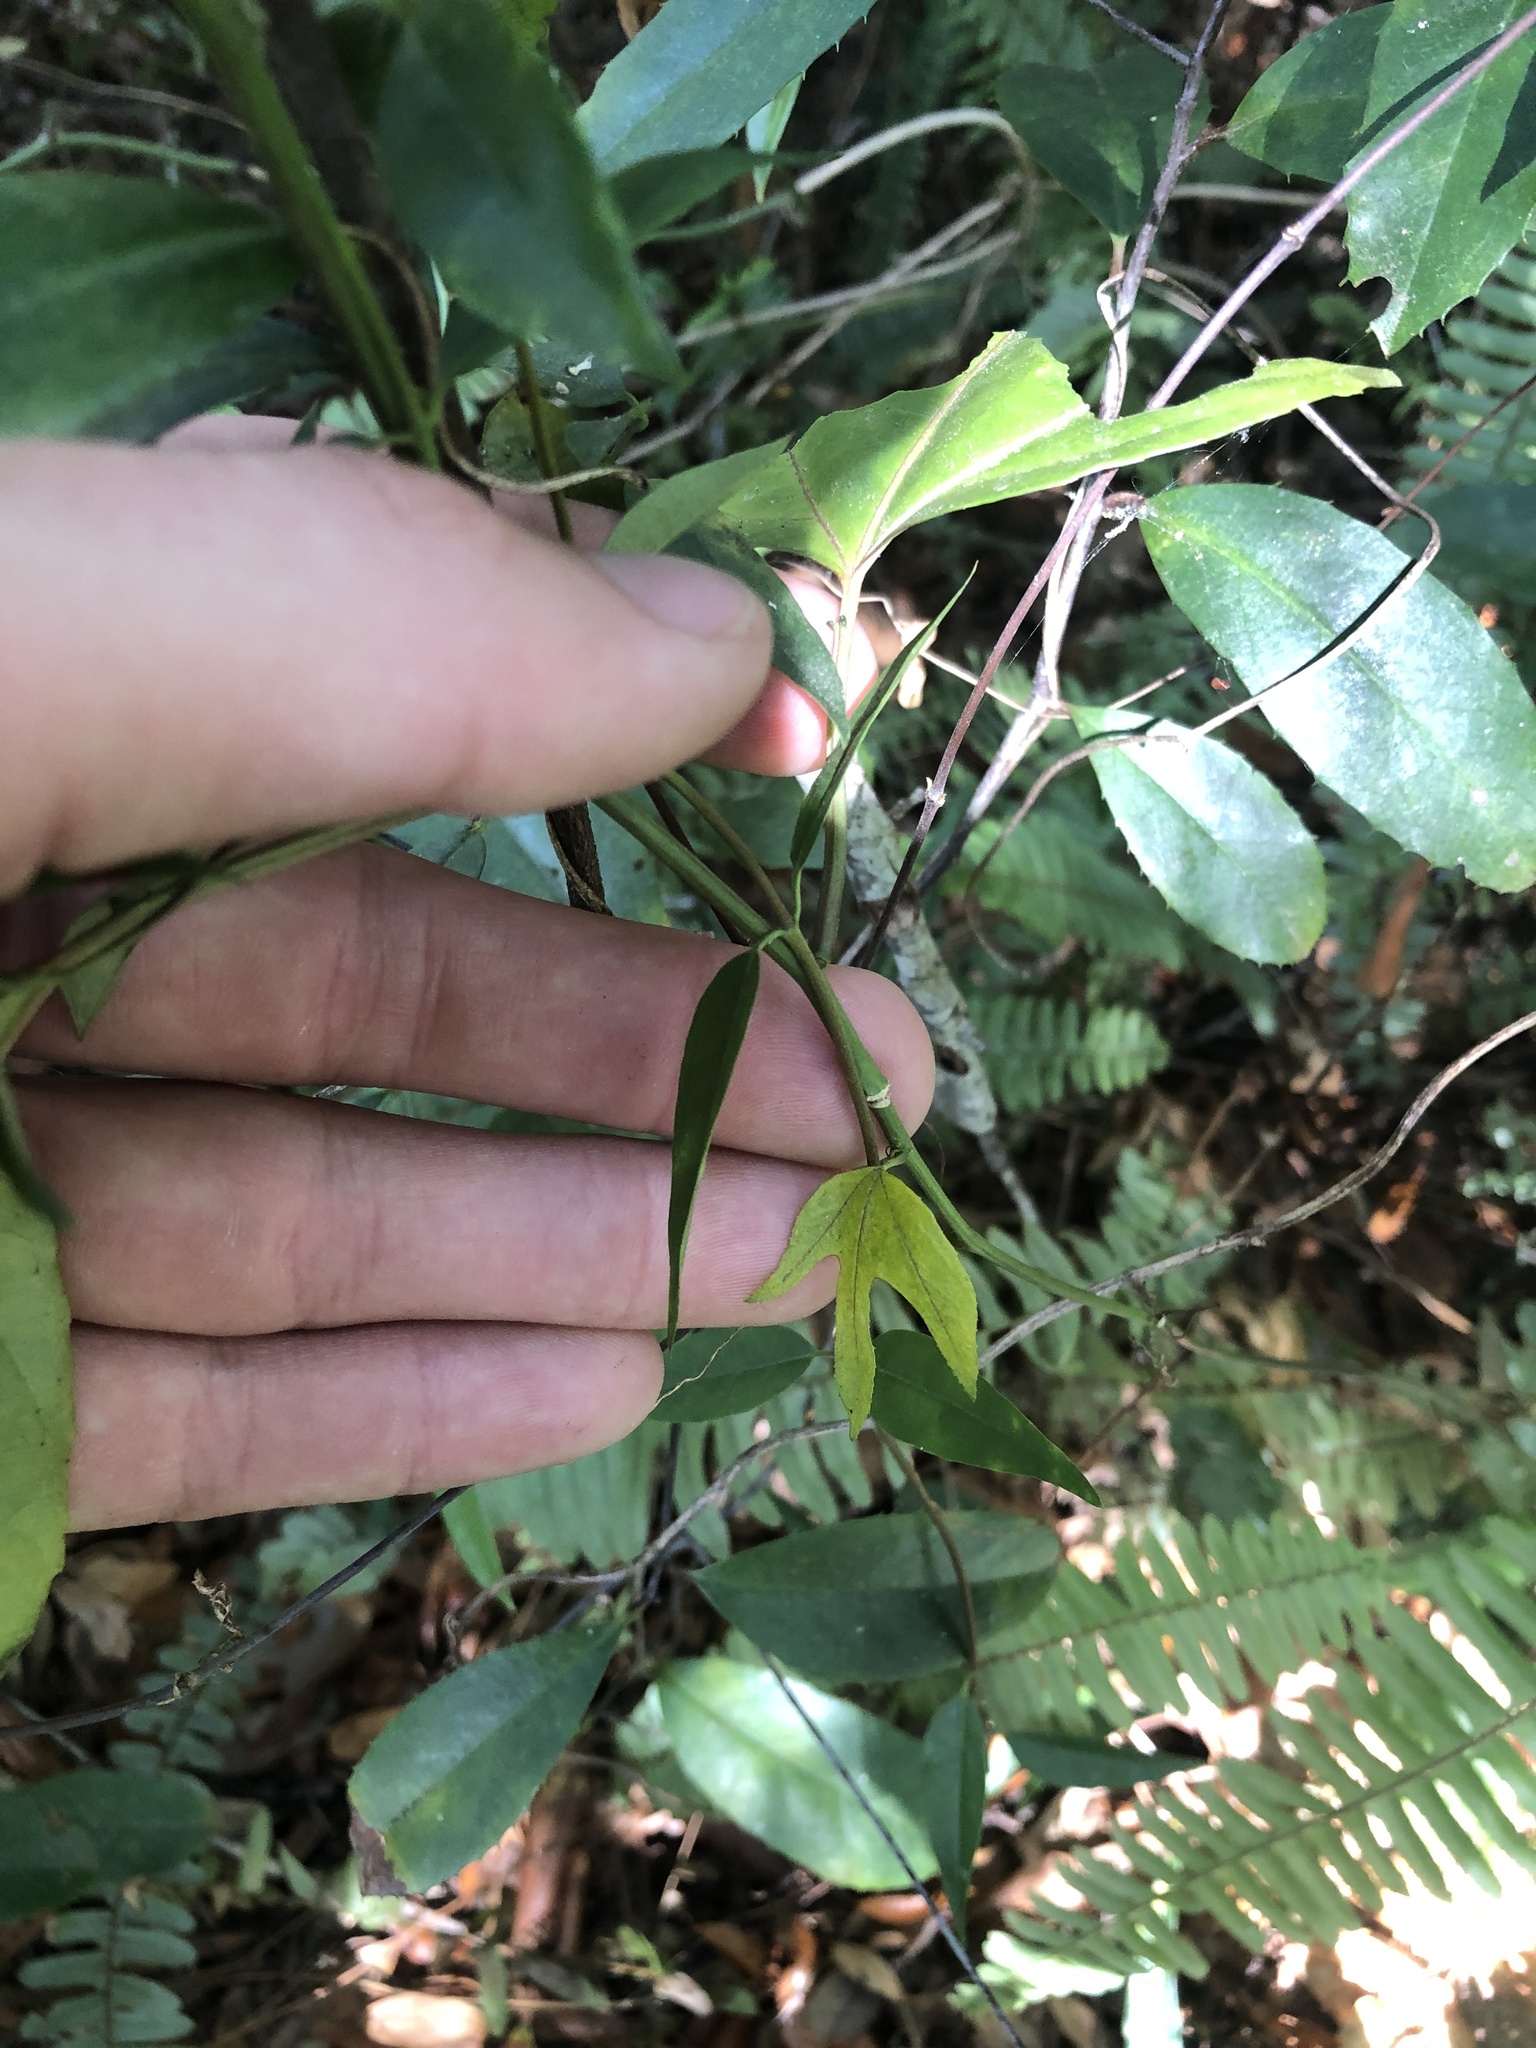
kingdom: Plantae
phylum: Tracheophyta
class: Magnoliopsida
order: Malpighiales
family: Passifloraceae
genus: Passiflora
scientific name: Passiflora edulis
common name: Purple granadilla
